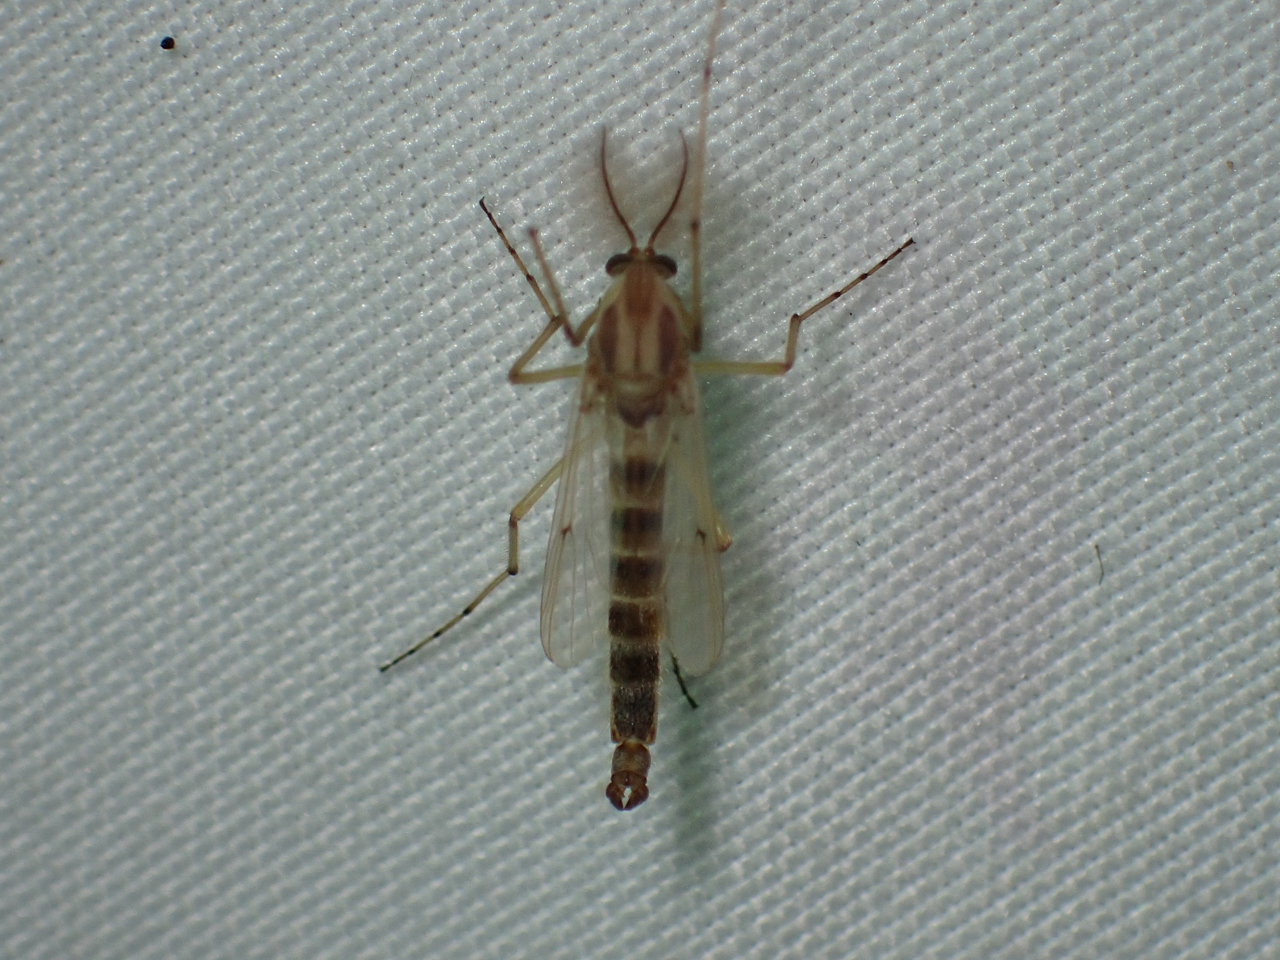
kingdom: Animalia
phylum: Arthropoda
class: Insecta
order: Diptera
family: Chironomidae
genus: Chironomus
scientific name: Chironomus crassicaudatus
